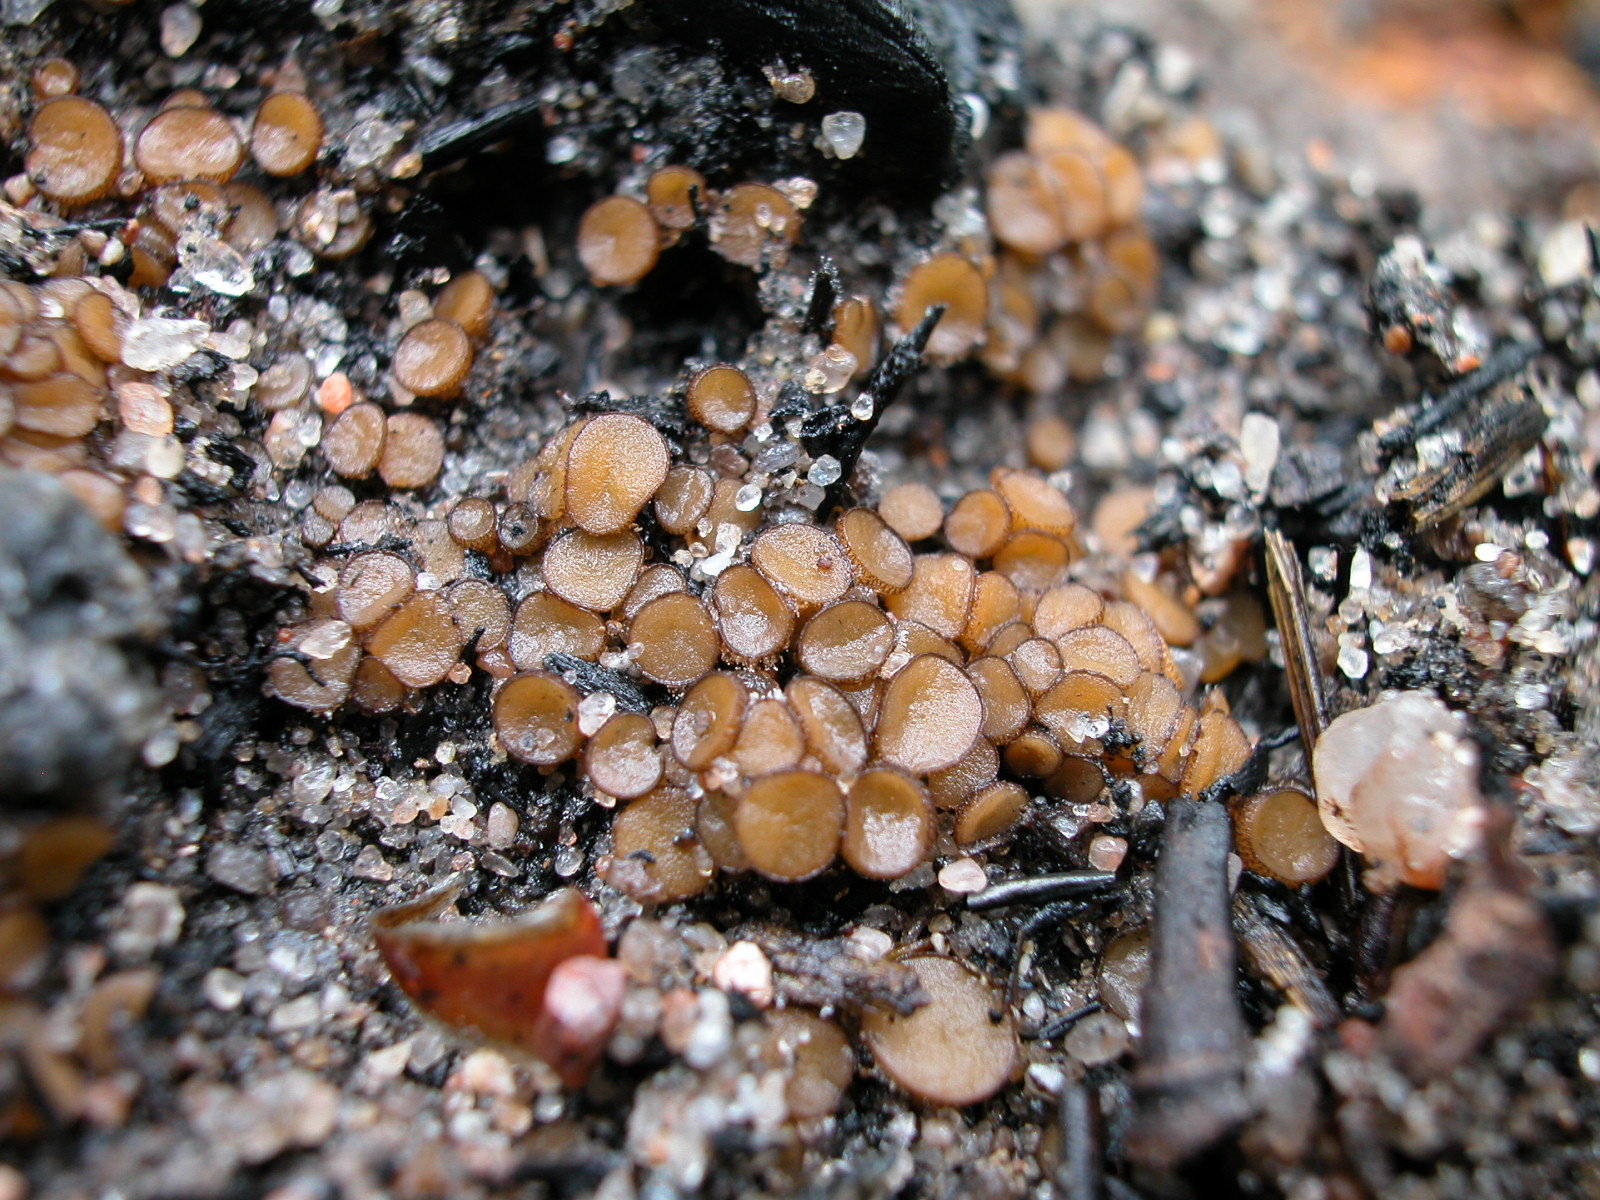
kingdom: Fungi
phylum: Ascomycota
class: Pezizomycetes
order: Pezizales
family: Pyronemataceae
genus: Anthracobia
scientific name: Anthracobia maurilabra
